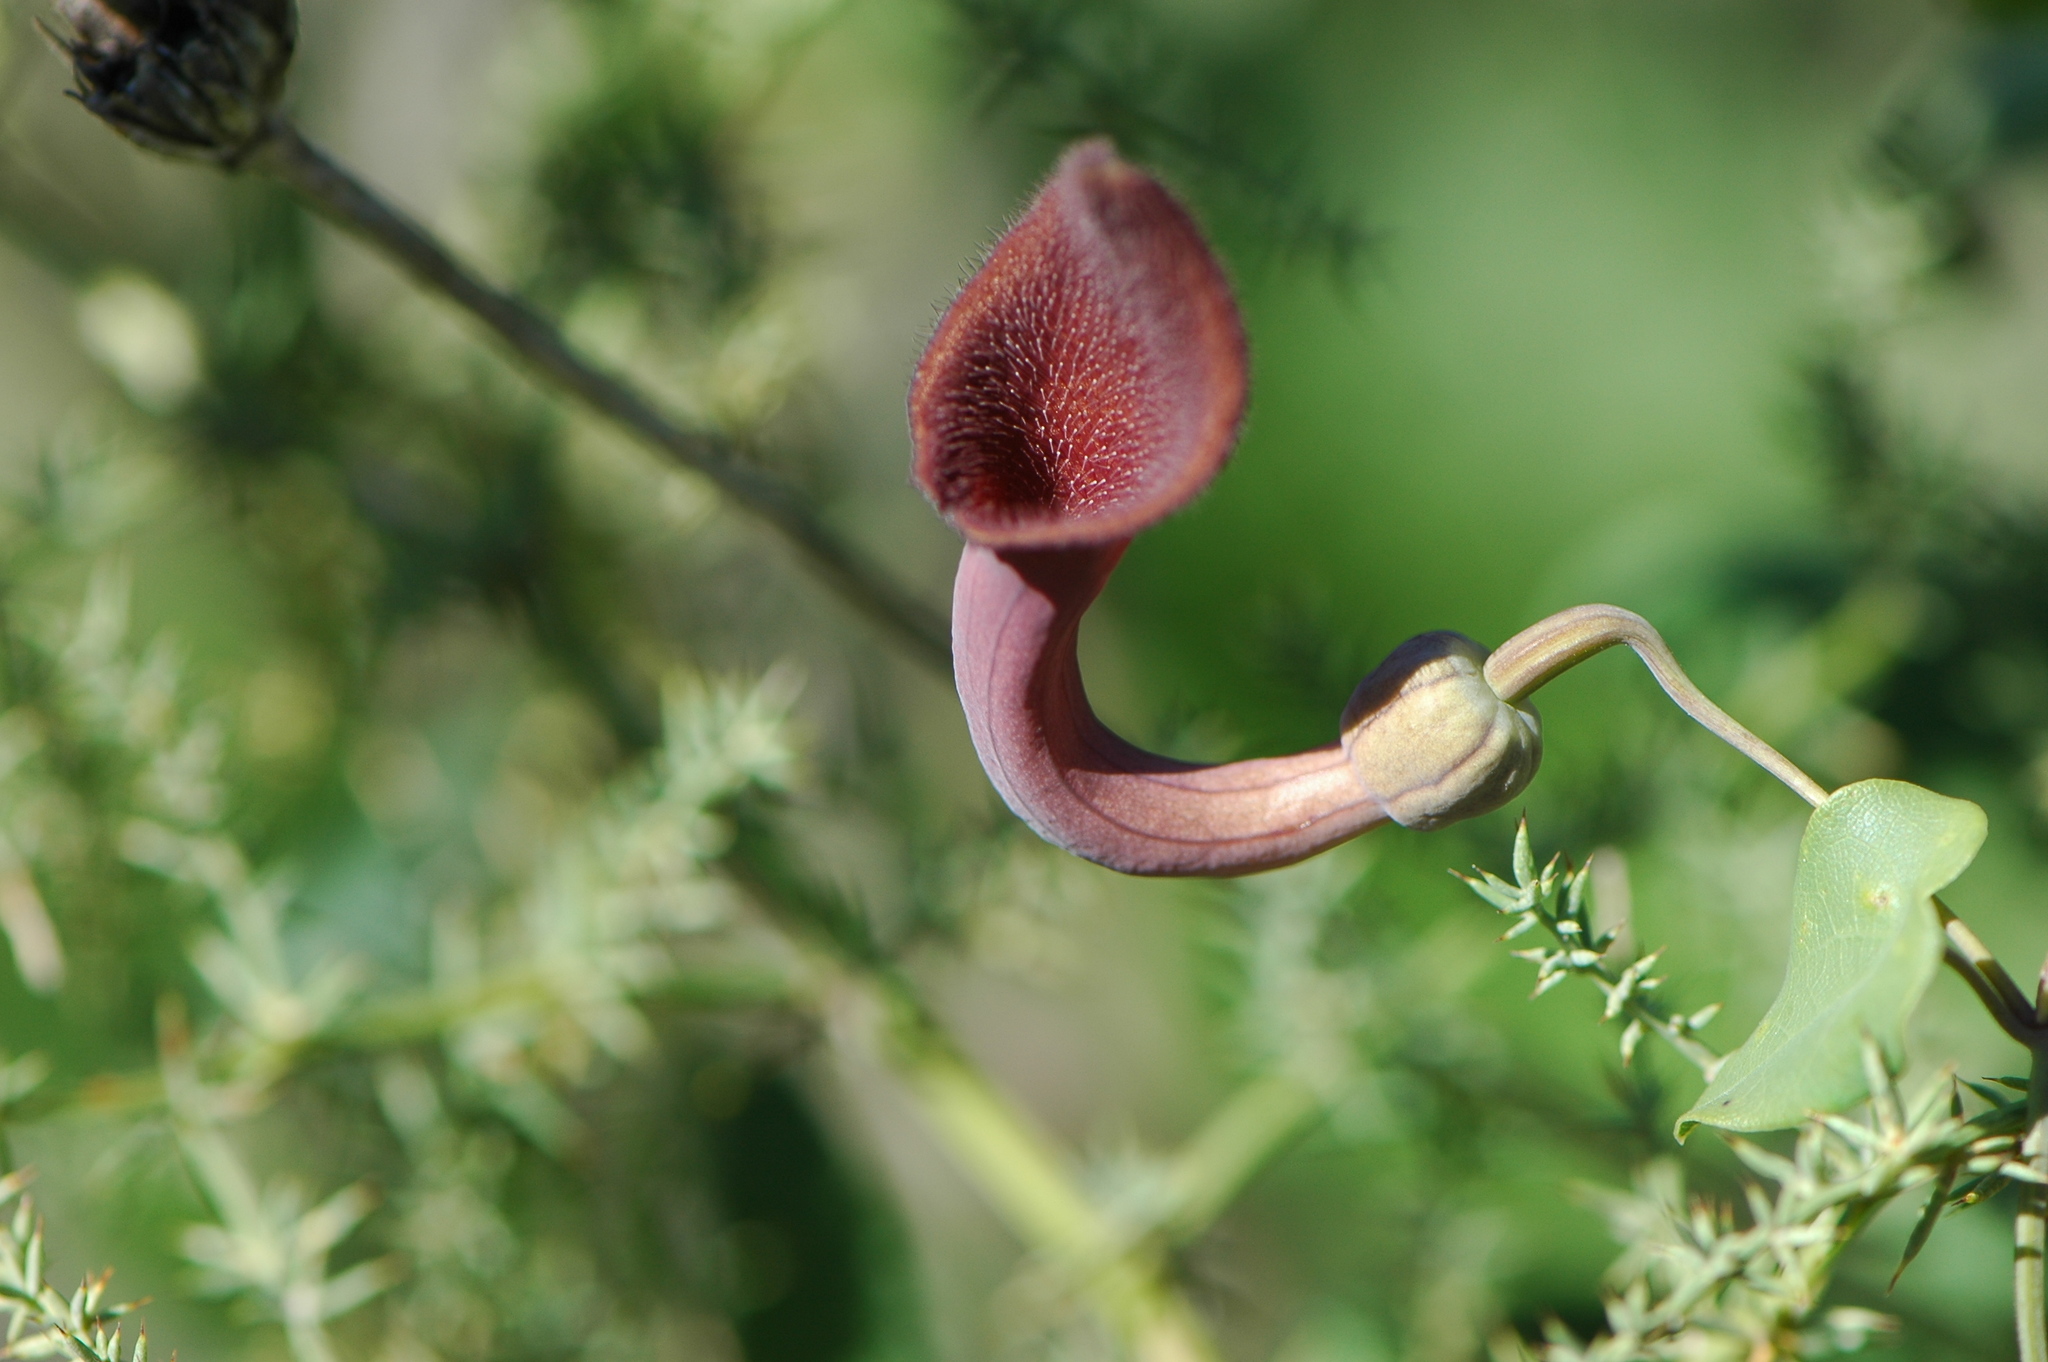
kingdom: Plantae
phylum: Tracheophyta
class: Magnoliopsida
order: Piperales
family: Aristolochiaceae
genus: Aristolochia
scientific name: Aristolochia baetica
